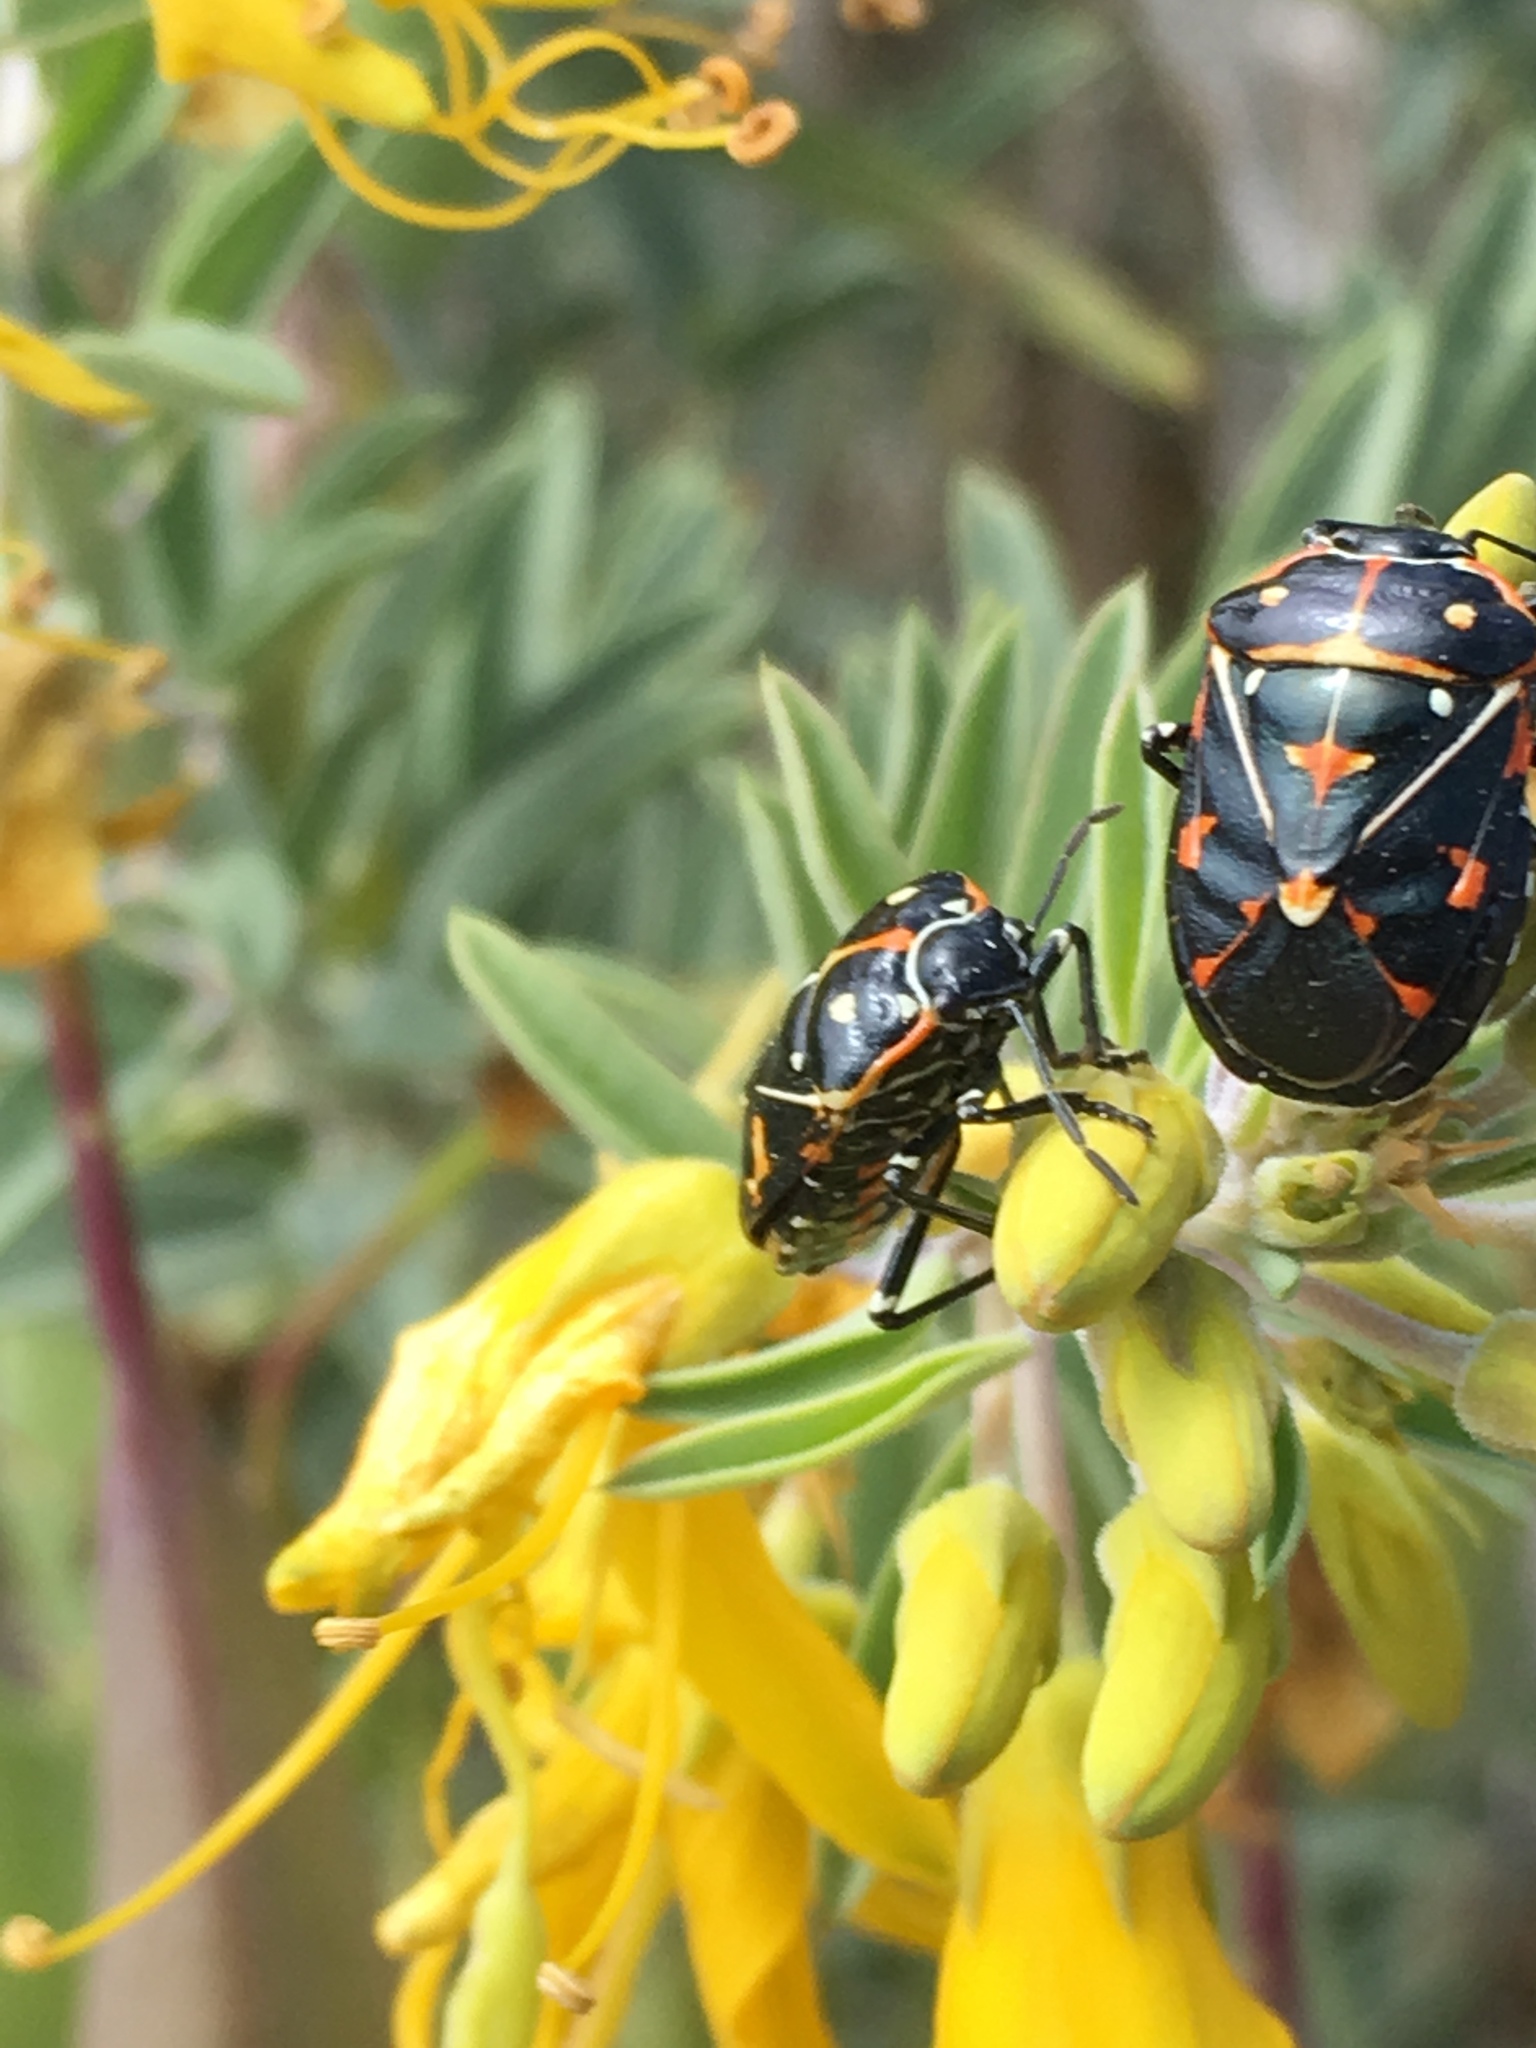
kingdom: Animalia
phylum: Arthropoda
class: Insecta
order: Hemiptera
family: Pentatomidae
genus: Murgantia
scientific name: Murgantia histrionica
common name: Harlequin bug
